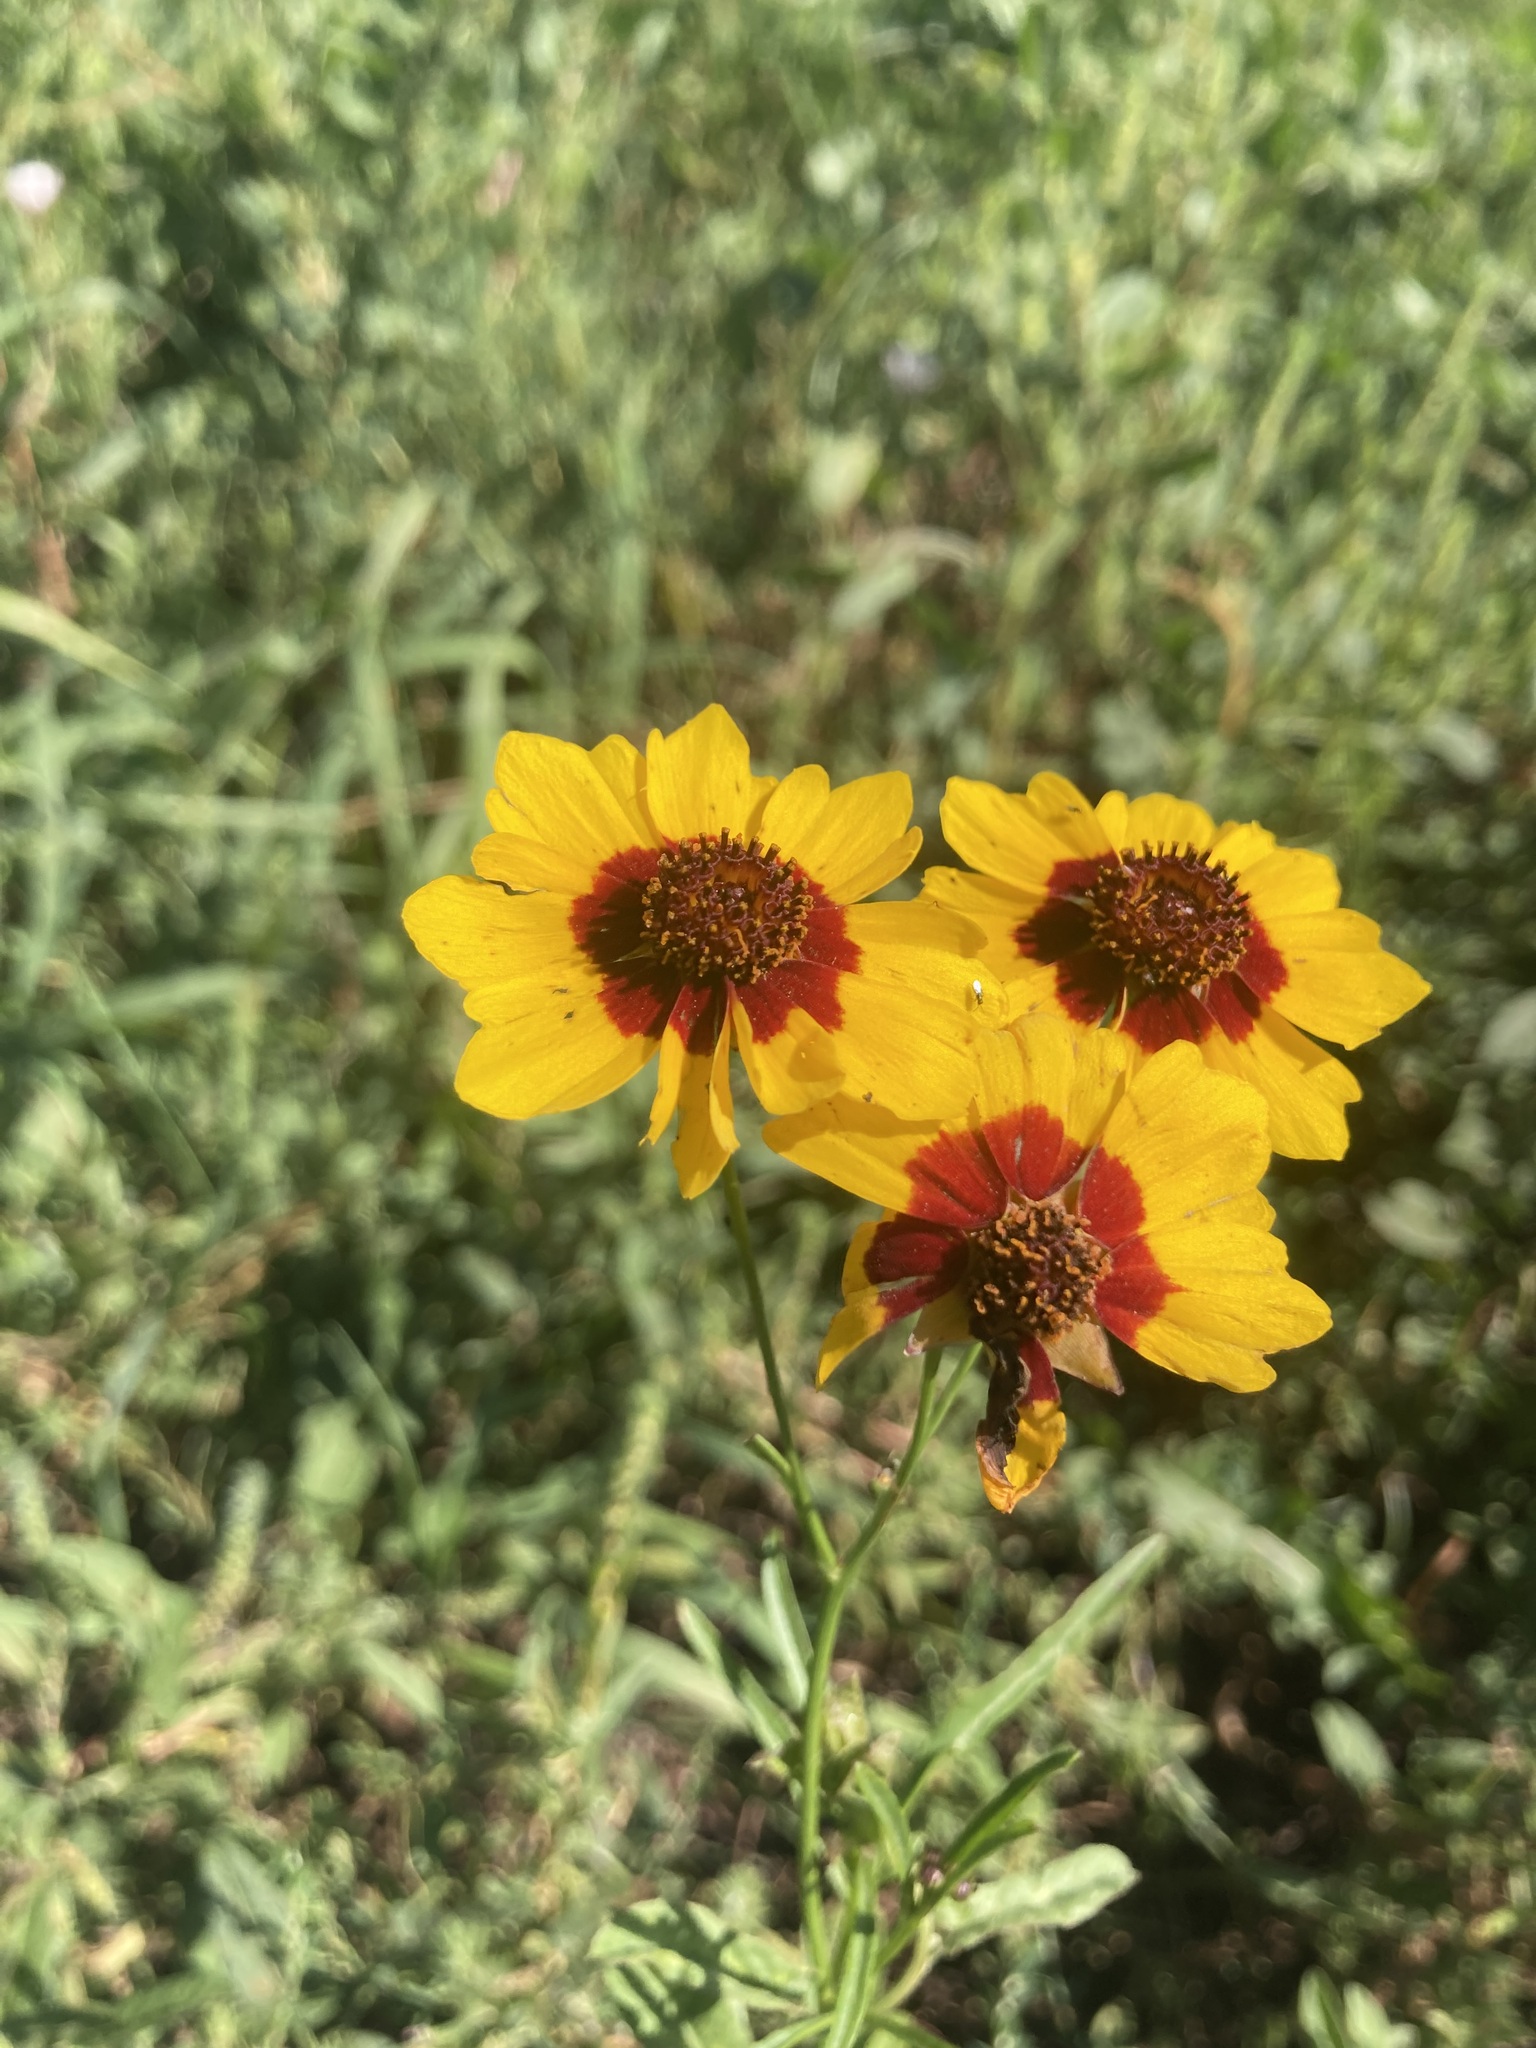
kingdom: Plantae
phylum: Tracheophyta
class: Magnoliopsida
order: Asterales
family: Asteraceae
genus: Coreopsis
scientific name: Coreopsis tinctoria
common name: Garden tickseed
